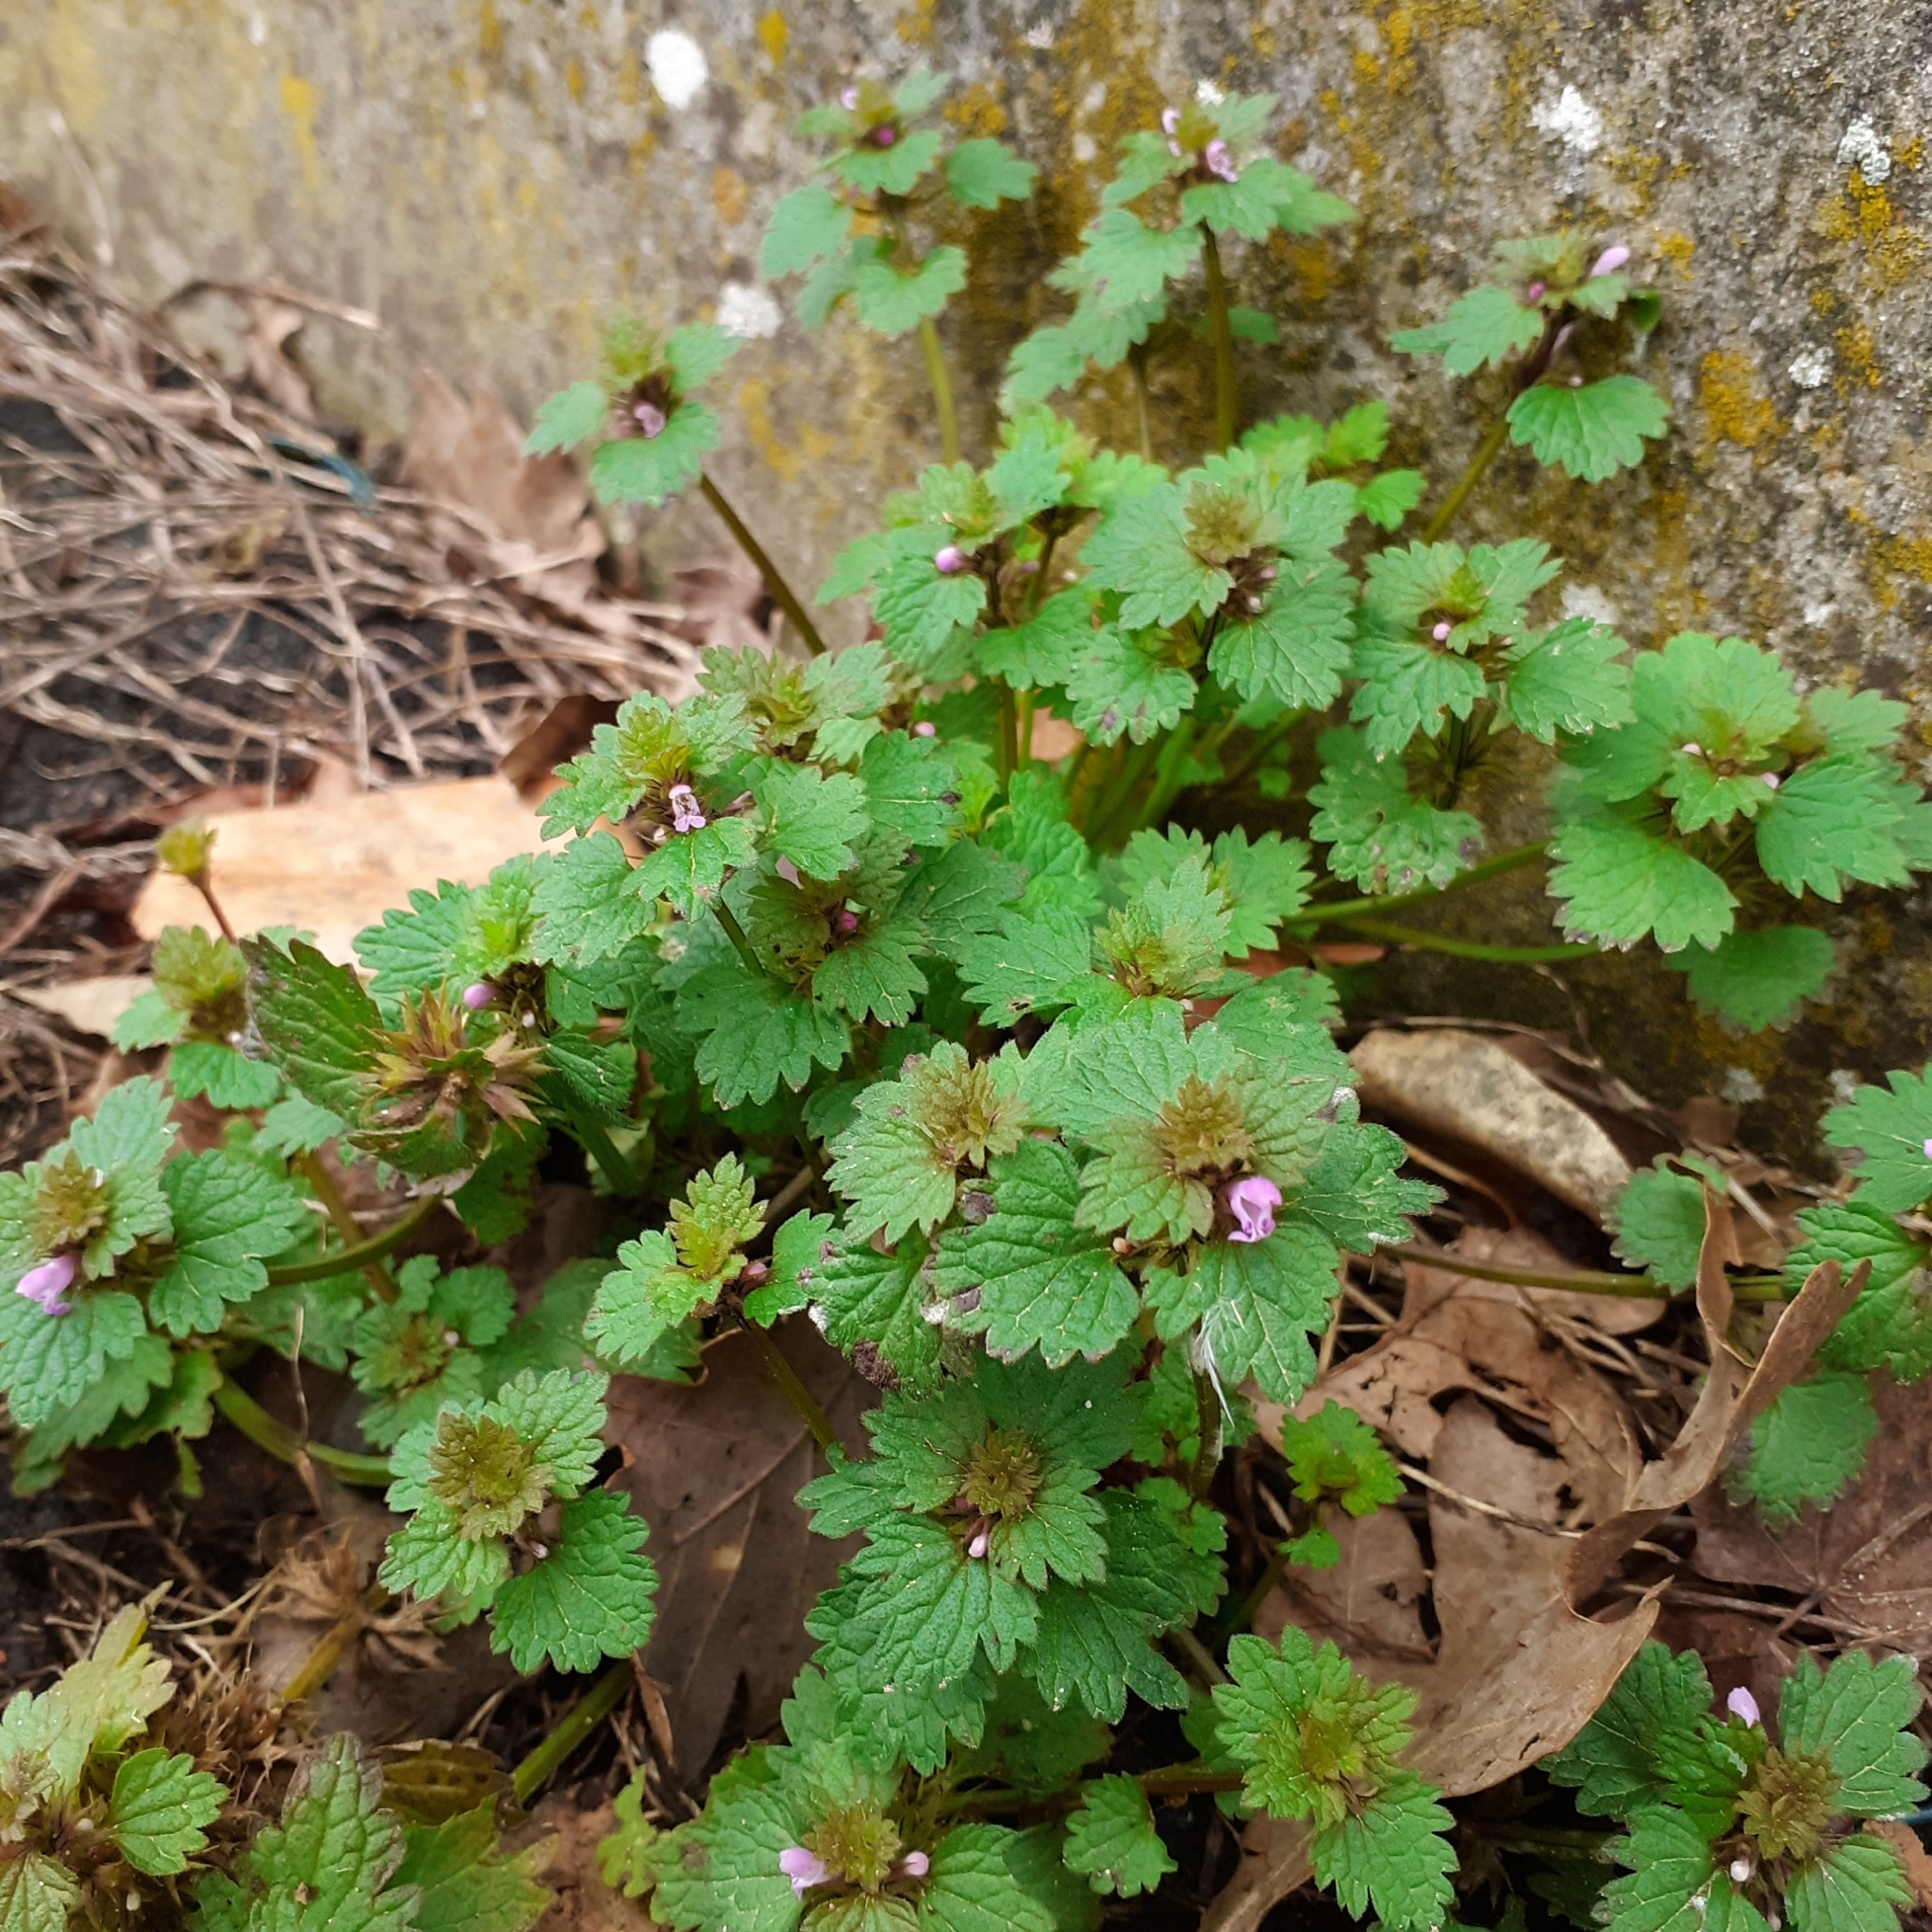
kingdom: Plantae
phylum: Tracheophyta
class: Magnoliopsida
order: Lamiales
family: Lamiaceae
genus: Lamium
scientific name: Lamium hybridum
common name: Cut-leaved dead-nettle
